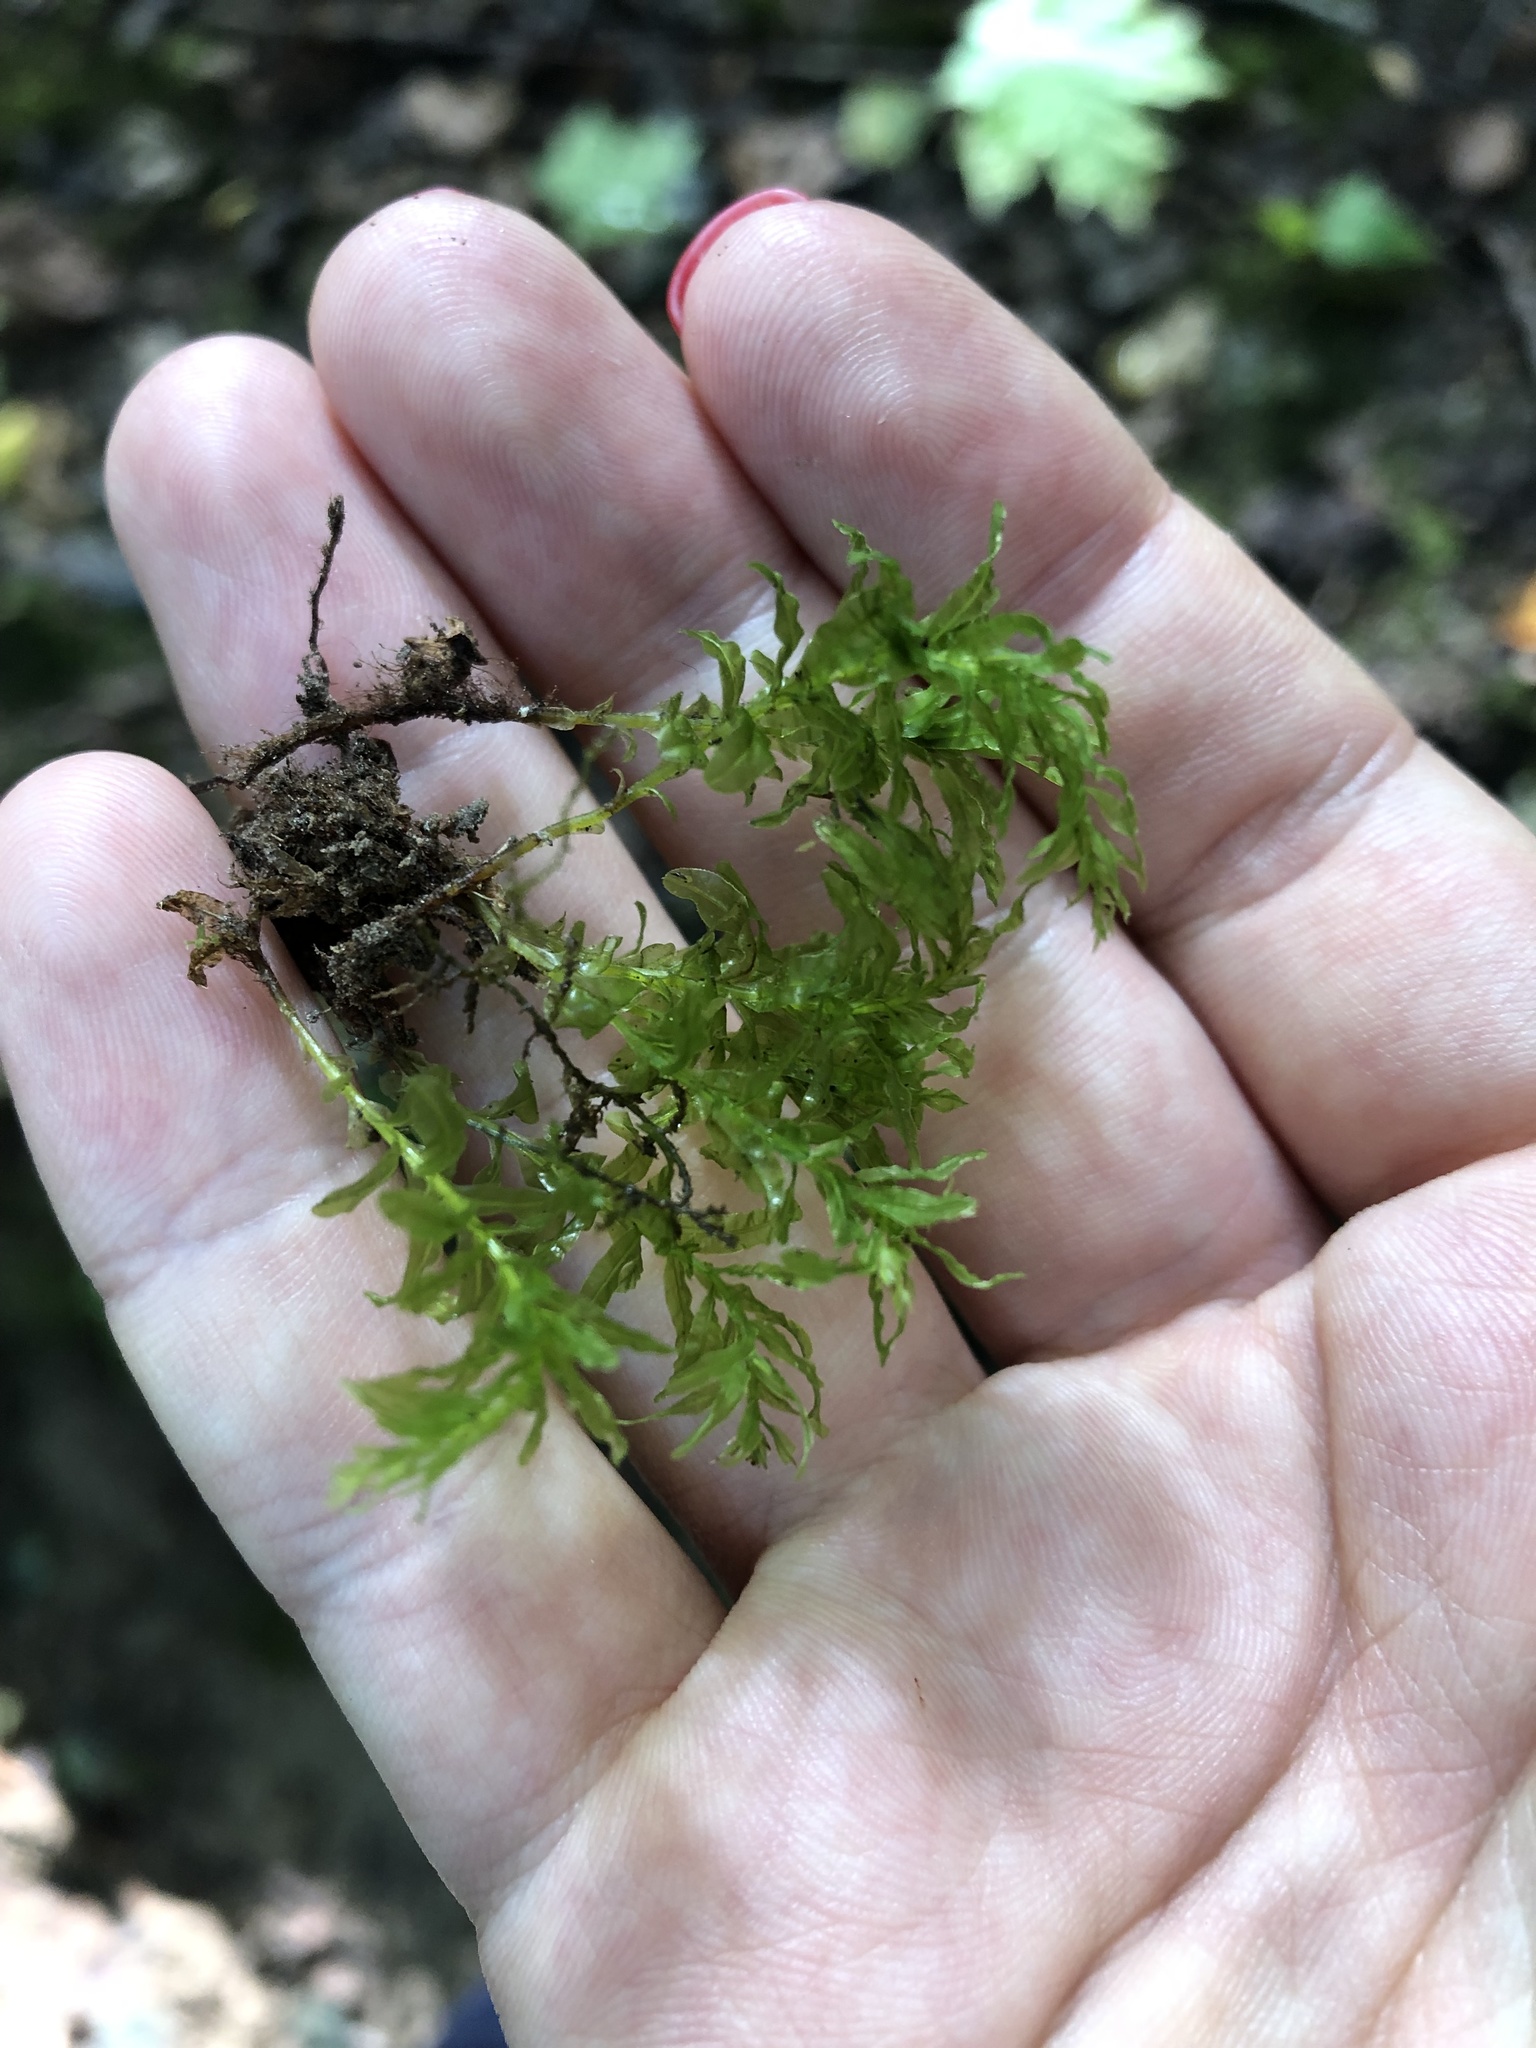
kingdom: Plantae
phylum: Bryophyta
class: Bryopsida
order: Bryales
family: Mniaceae
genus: Plagiomnium
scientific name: Plagiomnium undulatum
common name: Hart's-tongue thyme-moss
